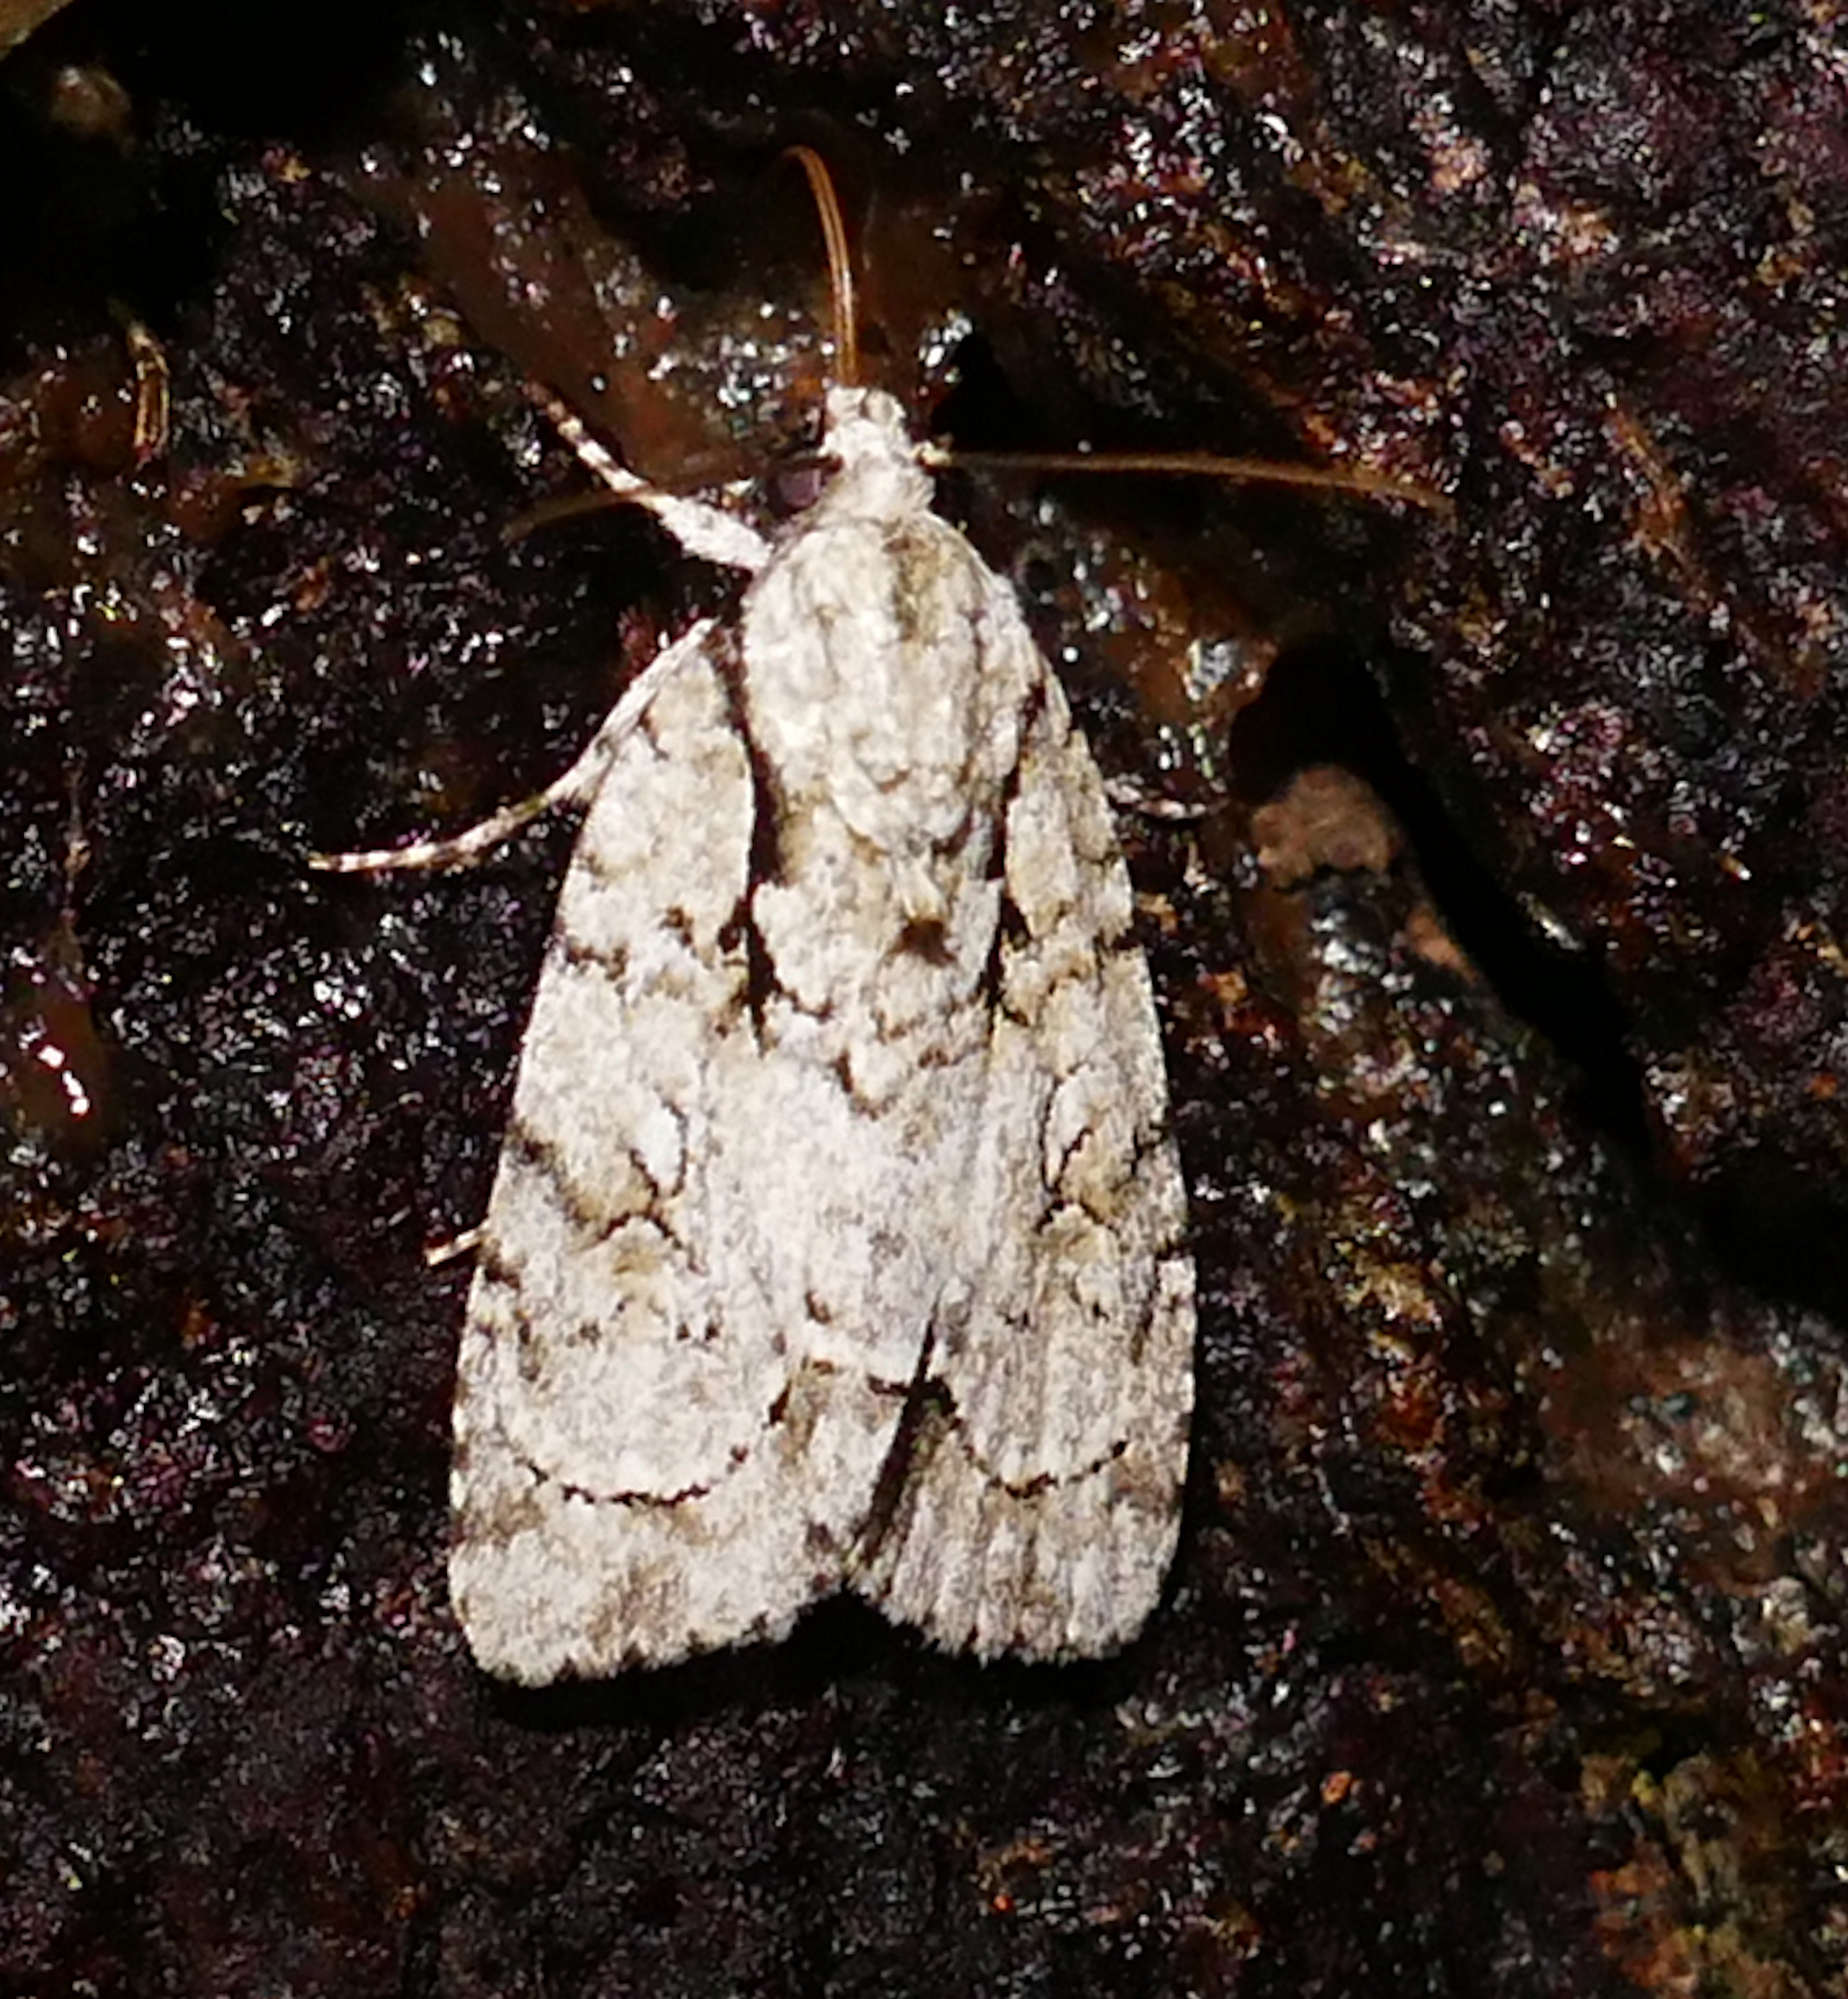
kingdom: Animalia
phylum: Arthropoda
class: Insecta
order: Lepidoptera
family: Noctuidae
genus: Acronicta
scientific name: Acronicta vinnula
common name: Delightful dagger
